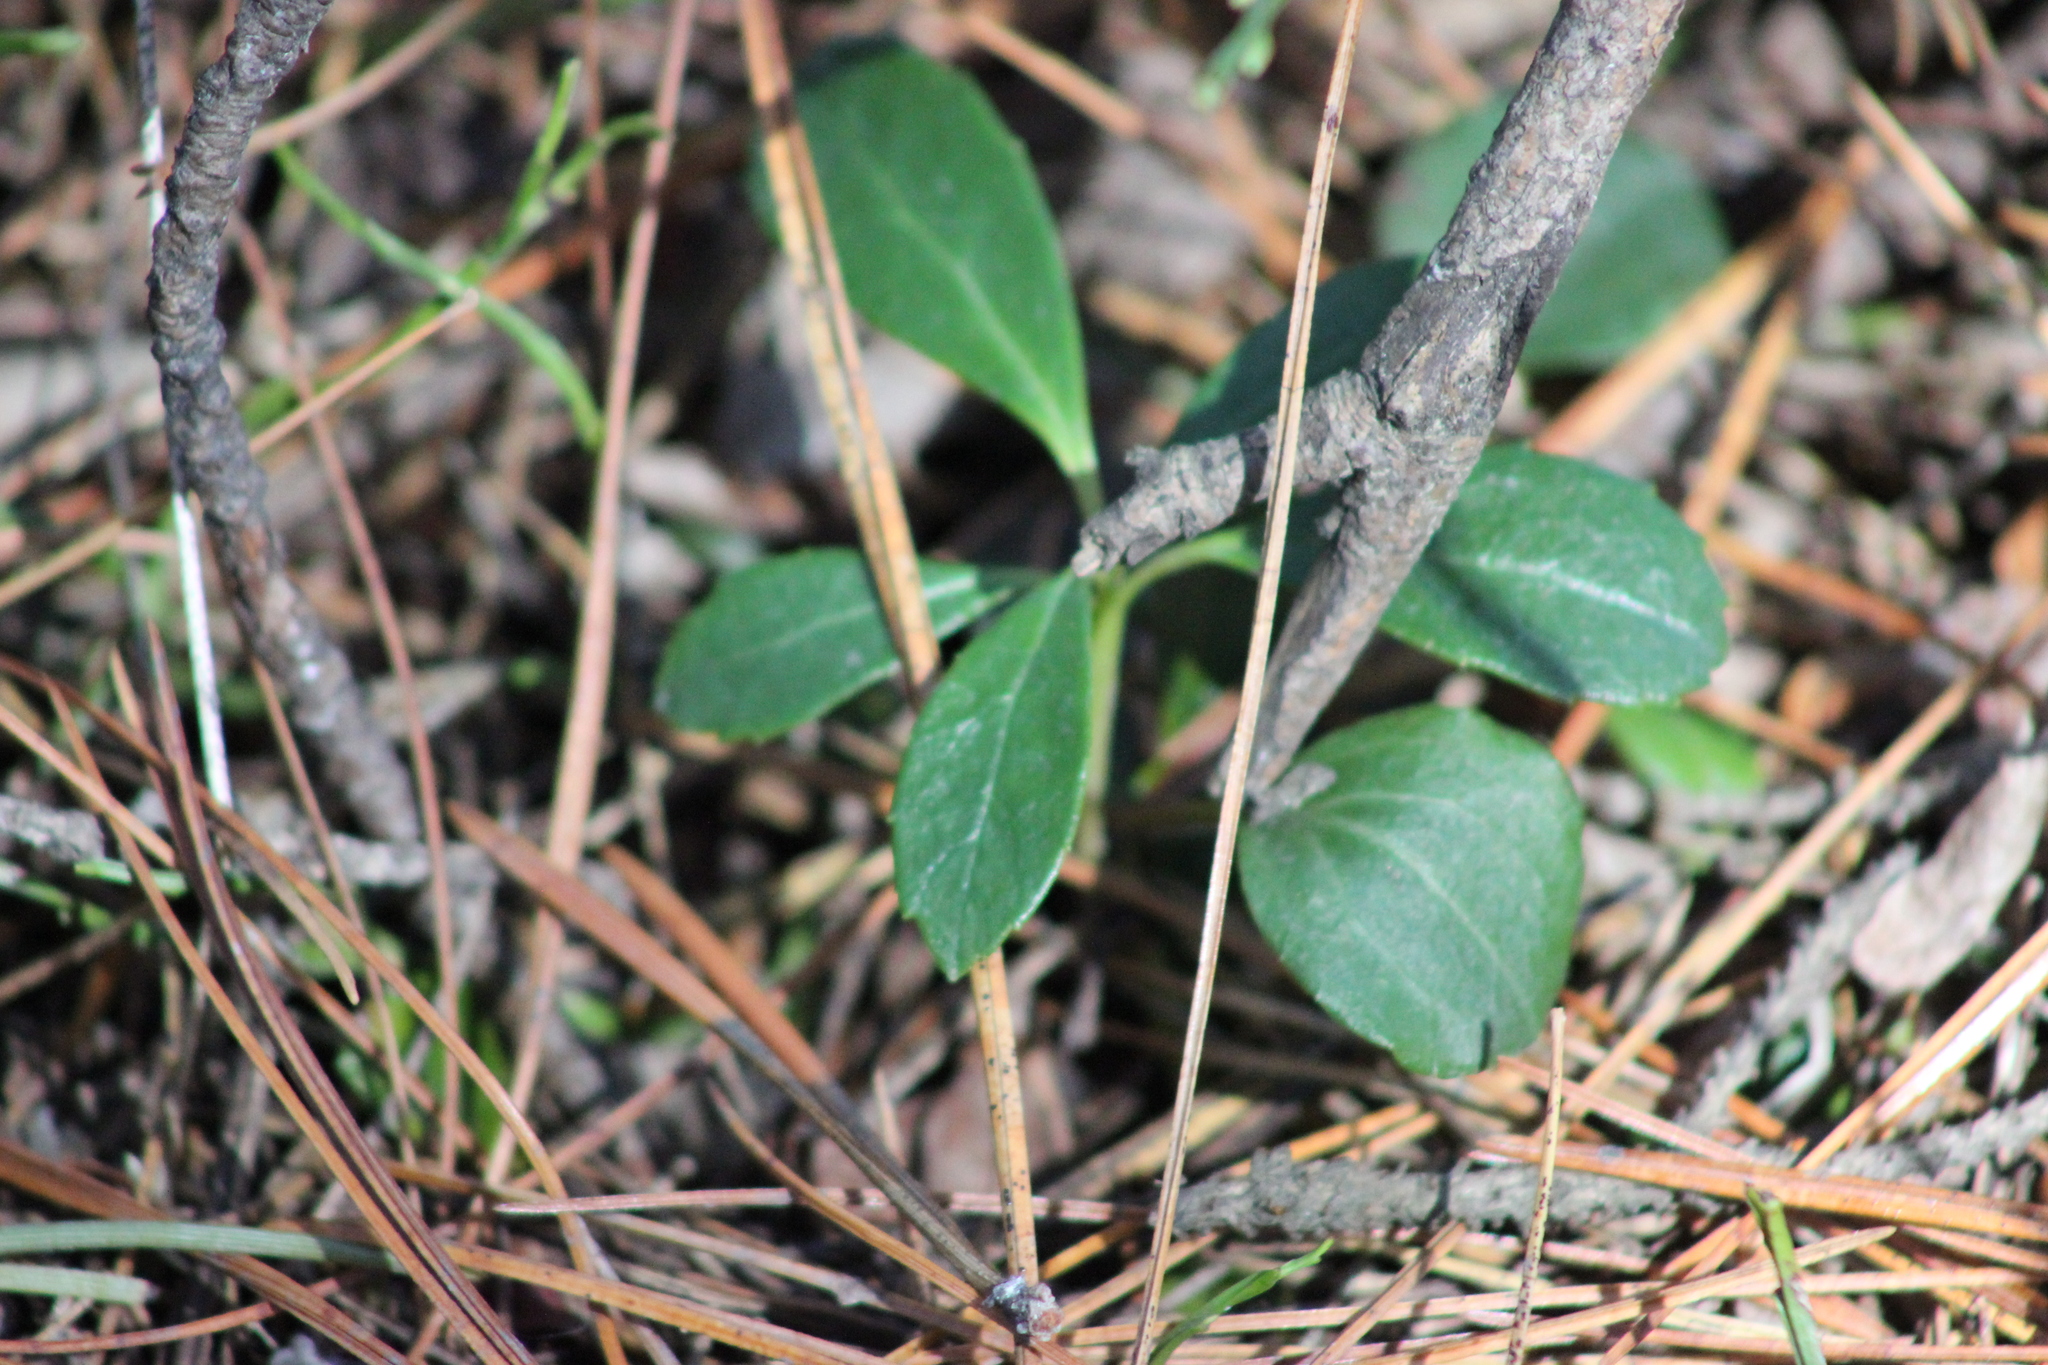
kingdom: Plantae
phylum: Tracheophyta
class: Magnoliopsida
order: Ericales
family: Ericaceae
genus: Chimaphila
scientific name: Chimaphila umbellata
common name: Pipsissewa
